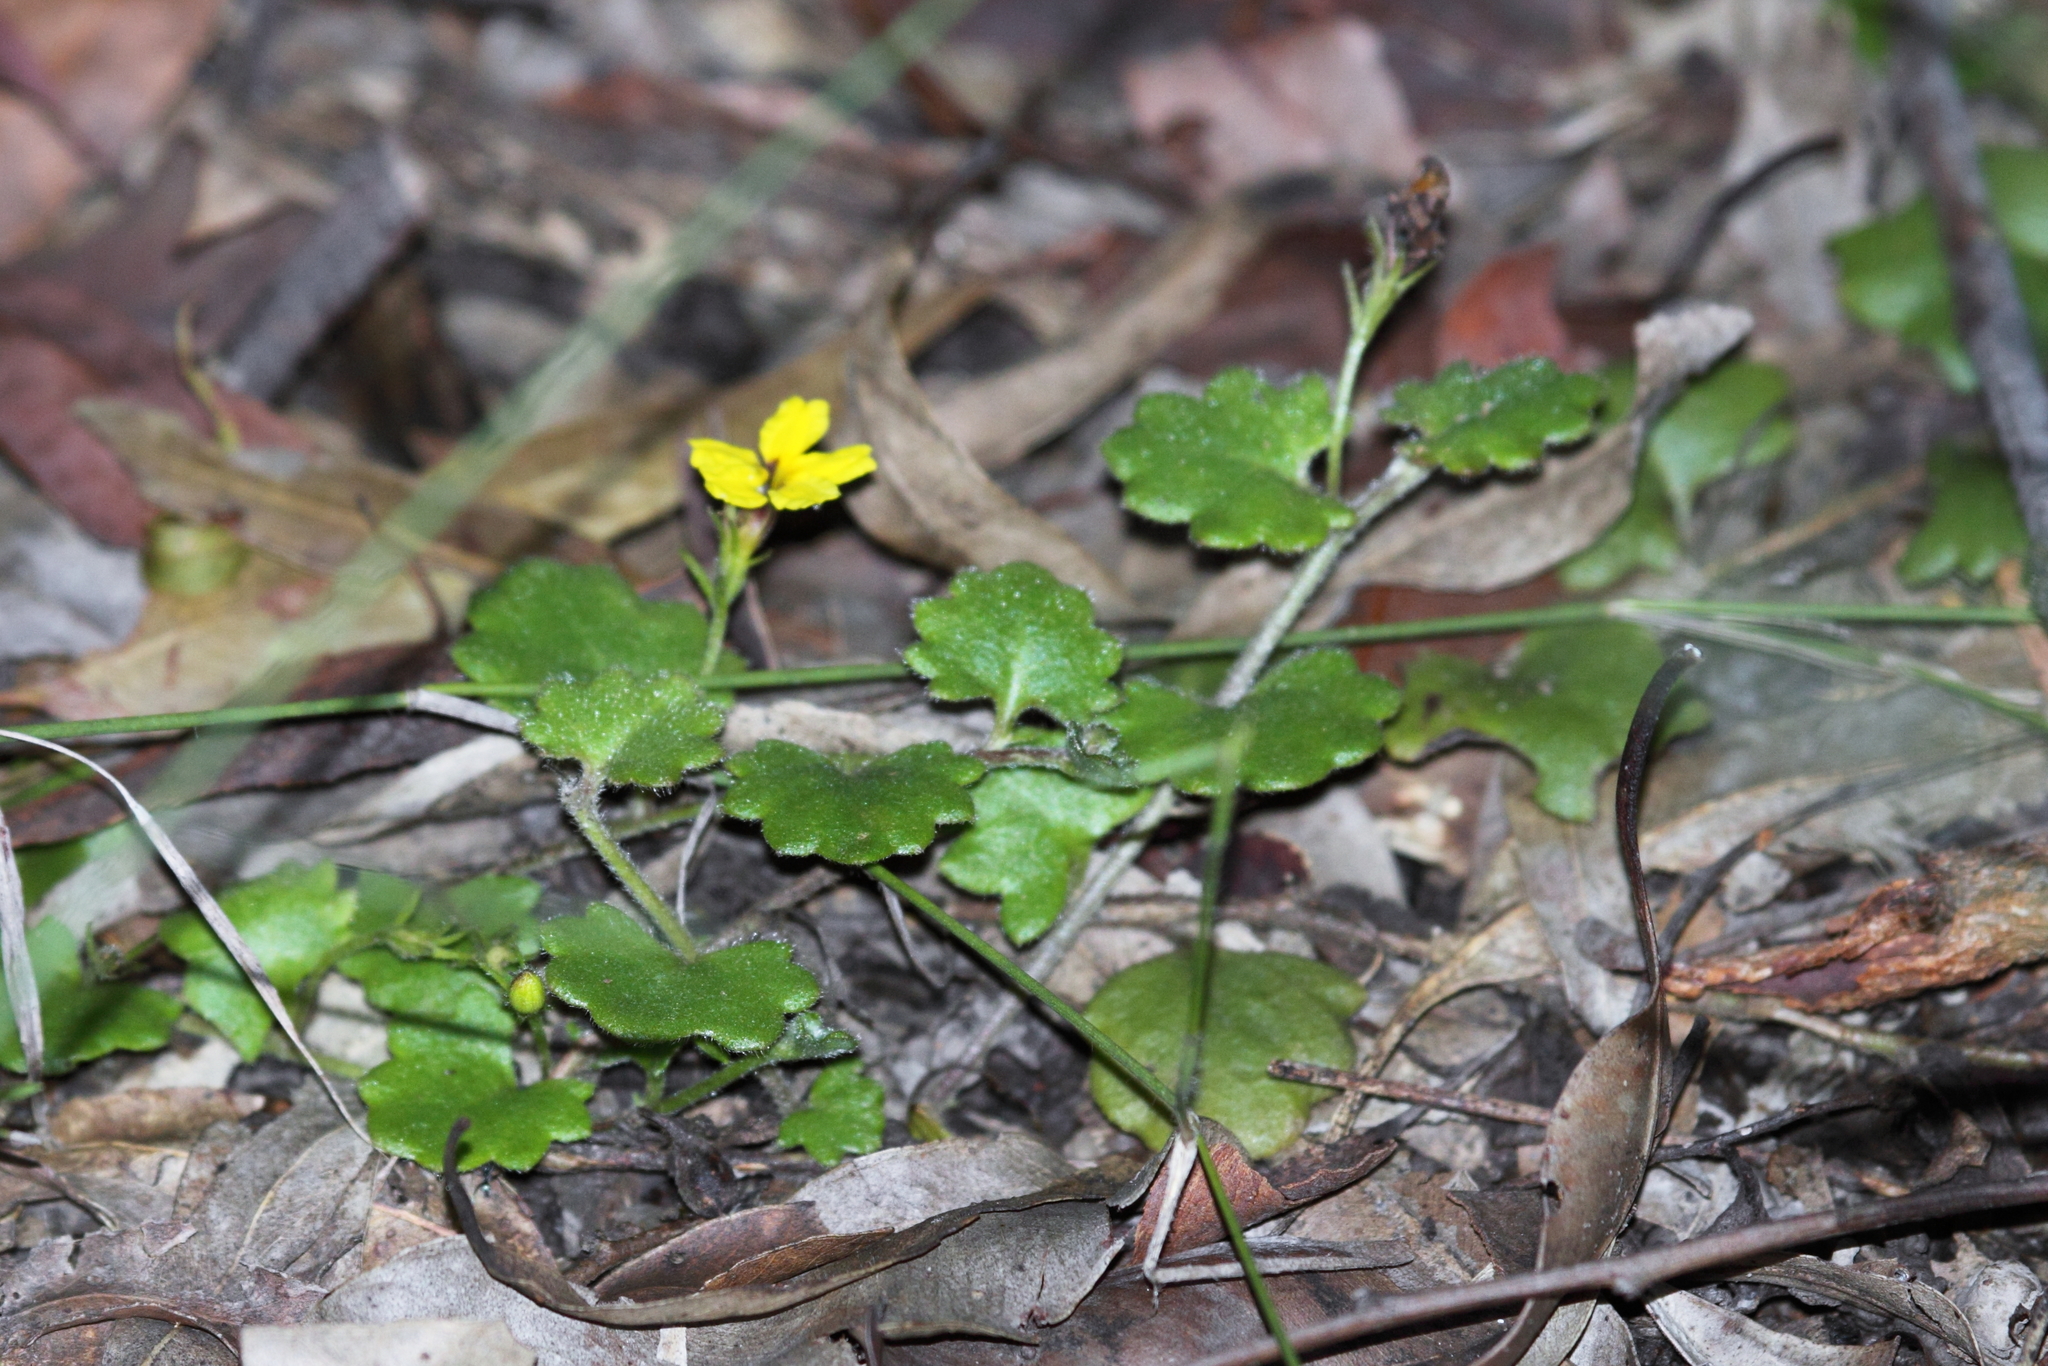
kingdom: Plantae
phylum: Tracheophyta
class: Magnoliopsida
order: Asterales
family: Goodeniaceae
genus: Goodenia
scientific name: Goodenia rotundifolia
